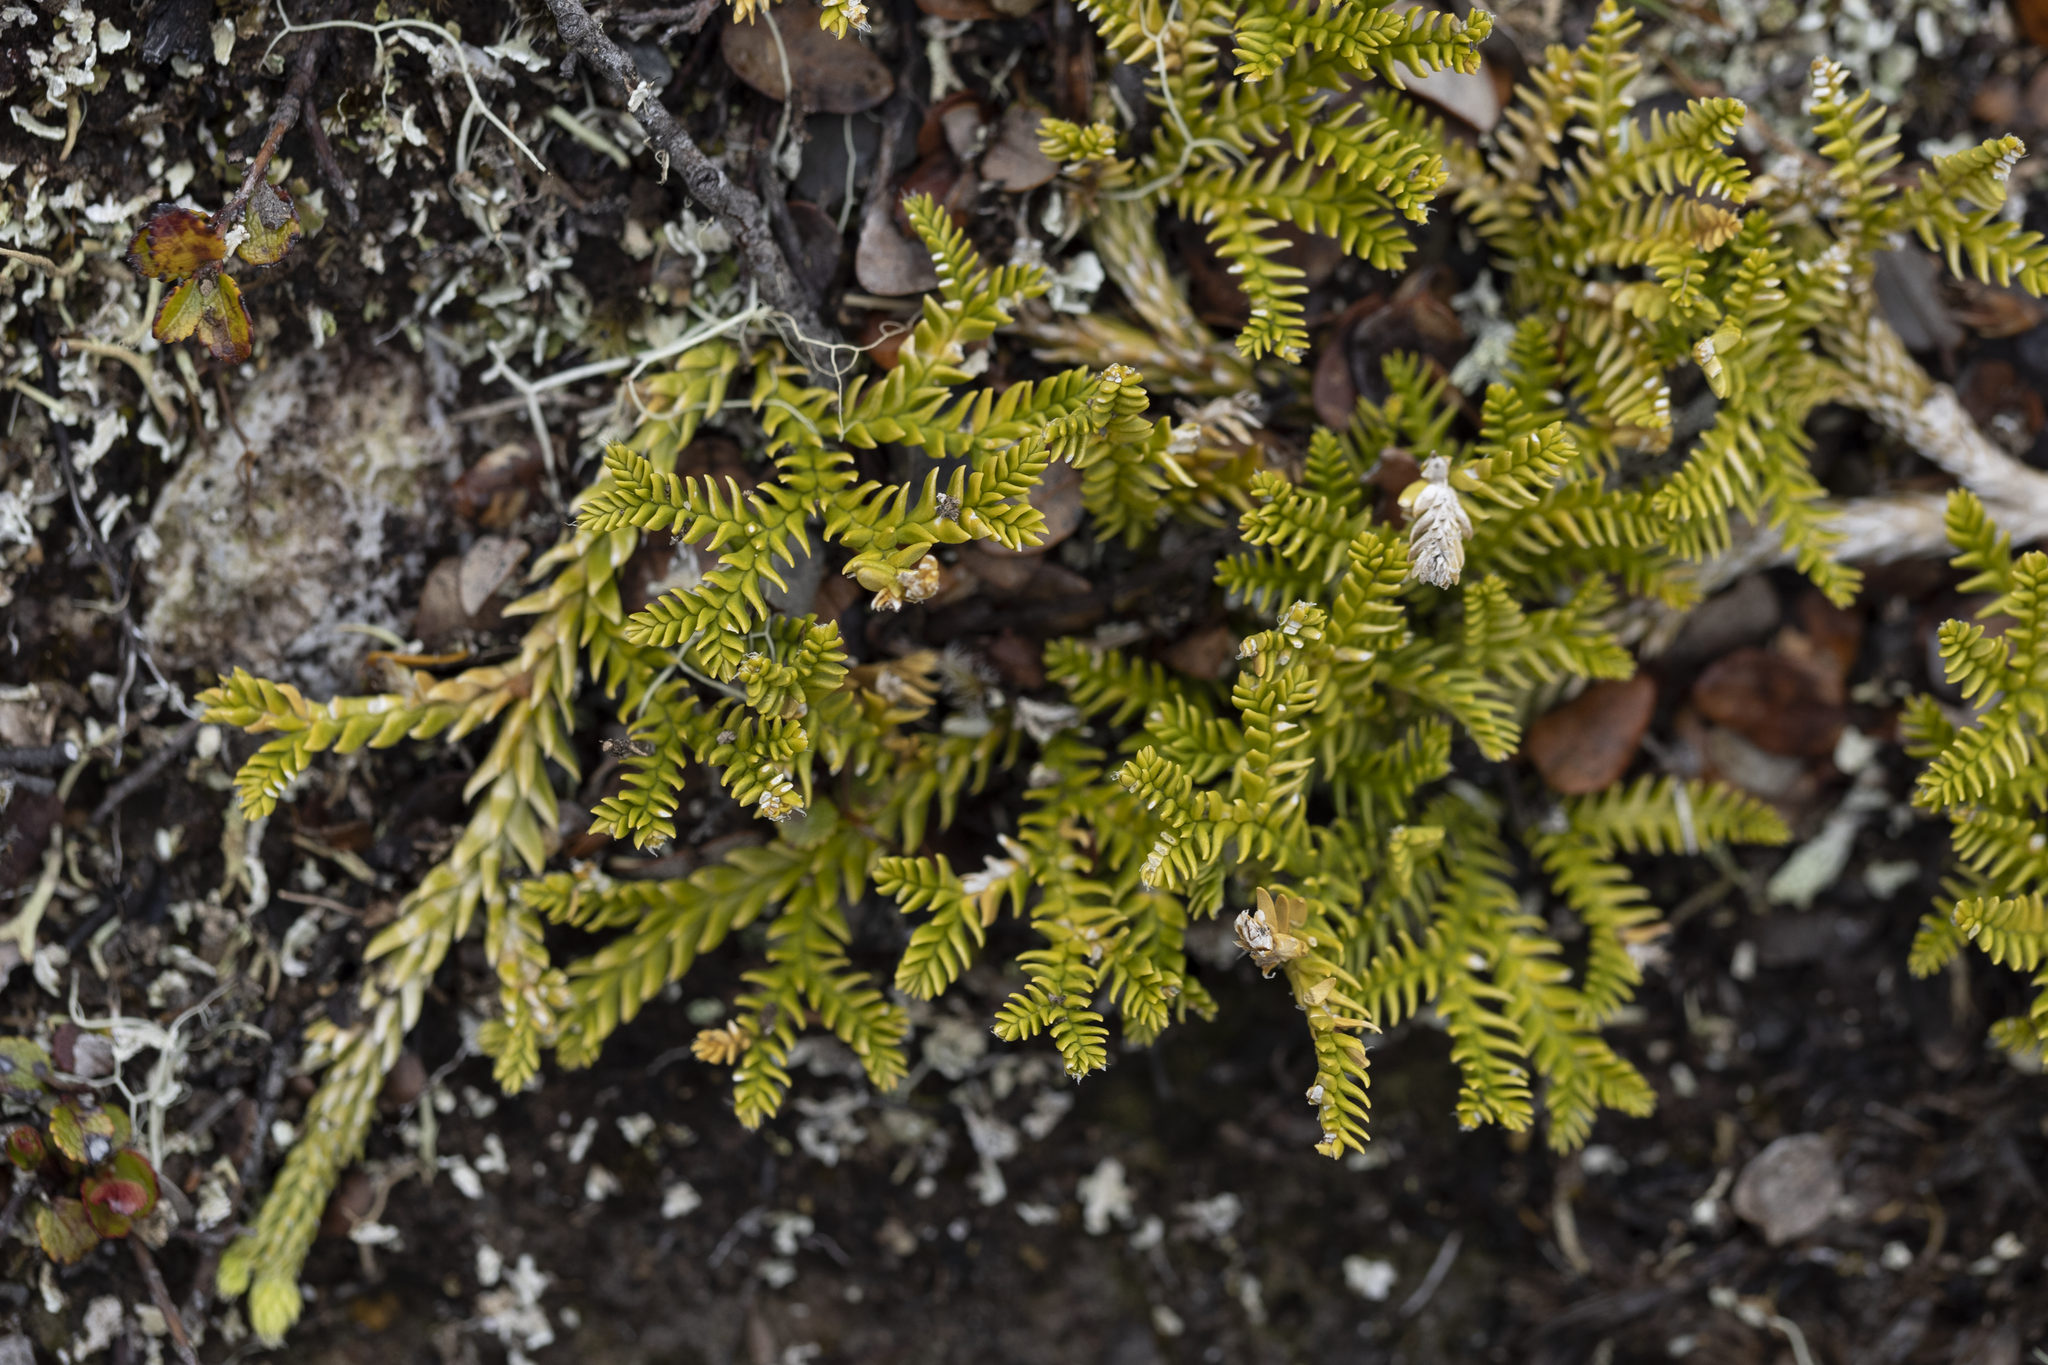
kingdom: Plantae
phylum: Tracheophyta
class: Lycopodiopsida
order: Lycopodiales
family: Lycopodiaceae
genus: Diphasium
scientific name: Diphasium scariosum
